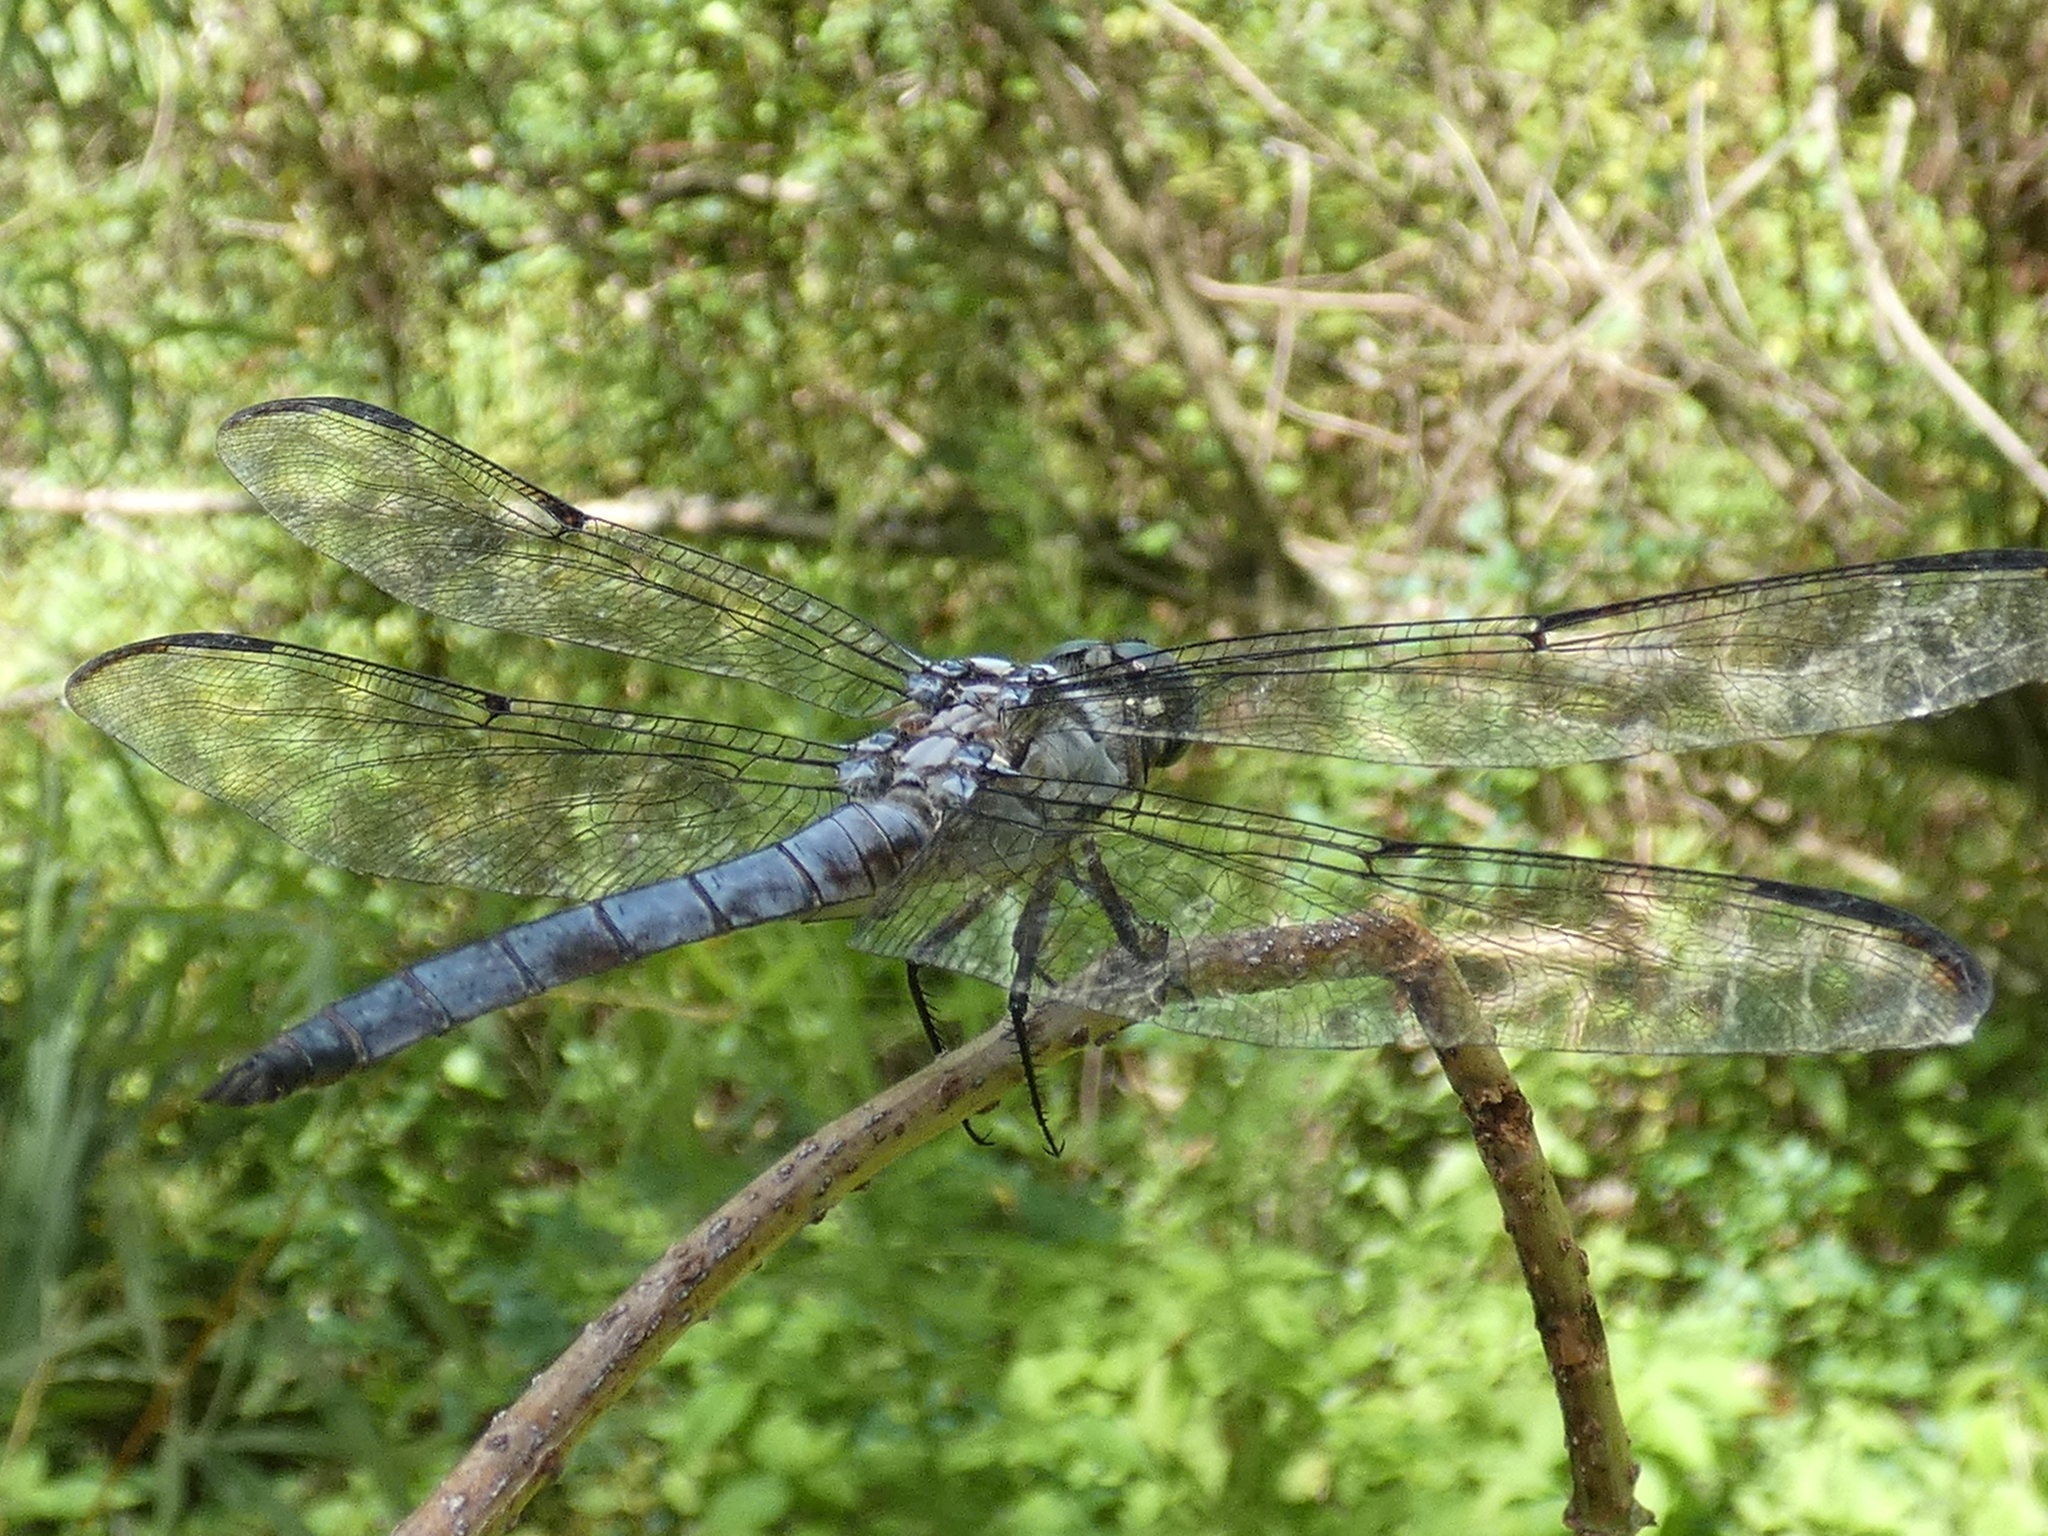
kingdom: Animalia
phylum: Arthropoda
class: Insecta
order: Odonata
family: Libellulidae
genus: Libellula
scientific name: Libellula vibrans
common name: Great blue skimmer
